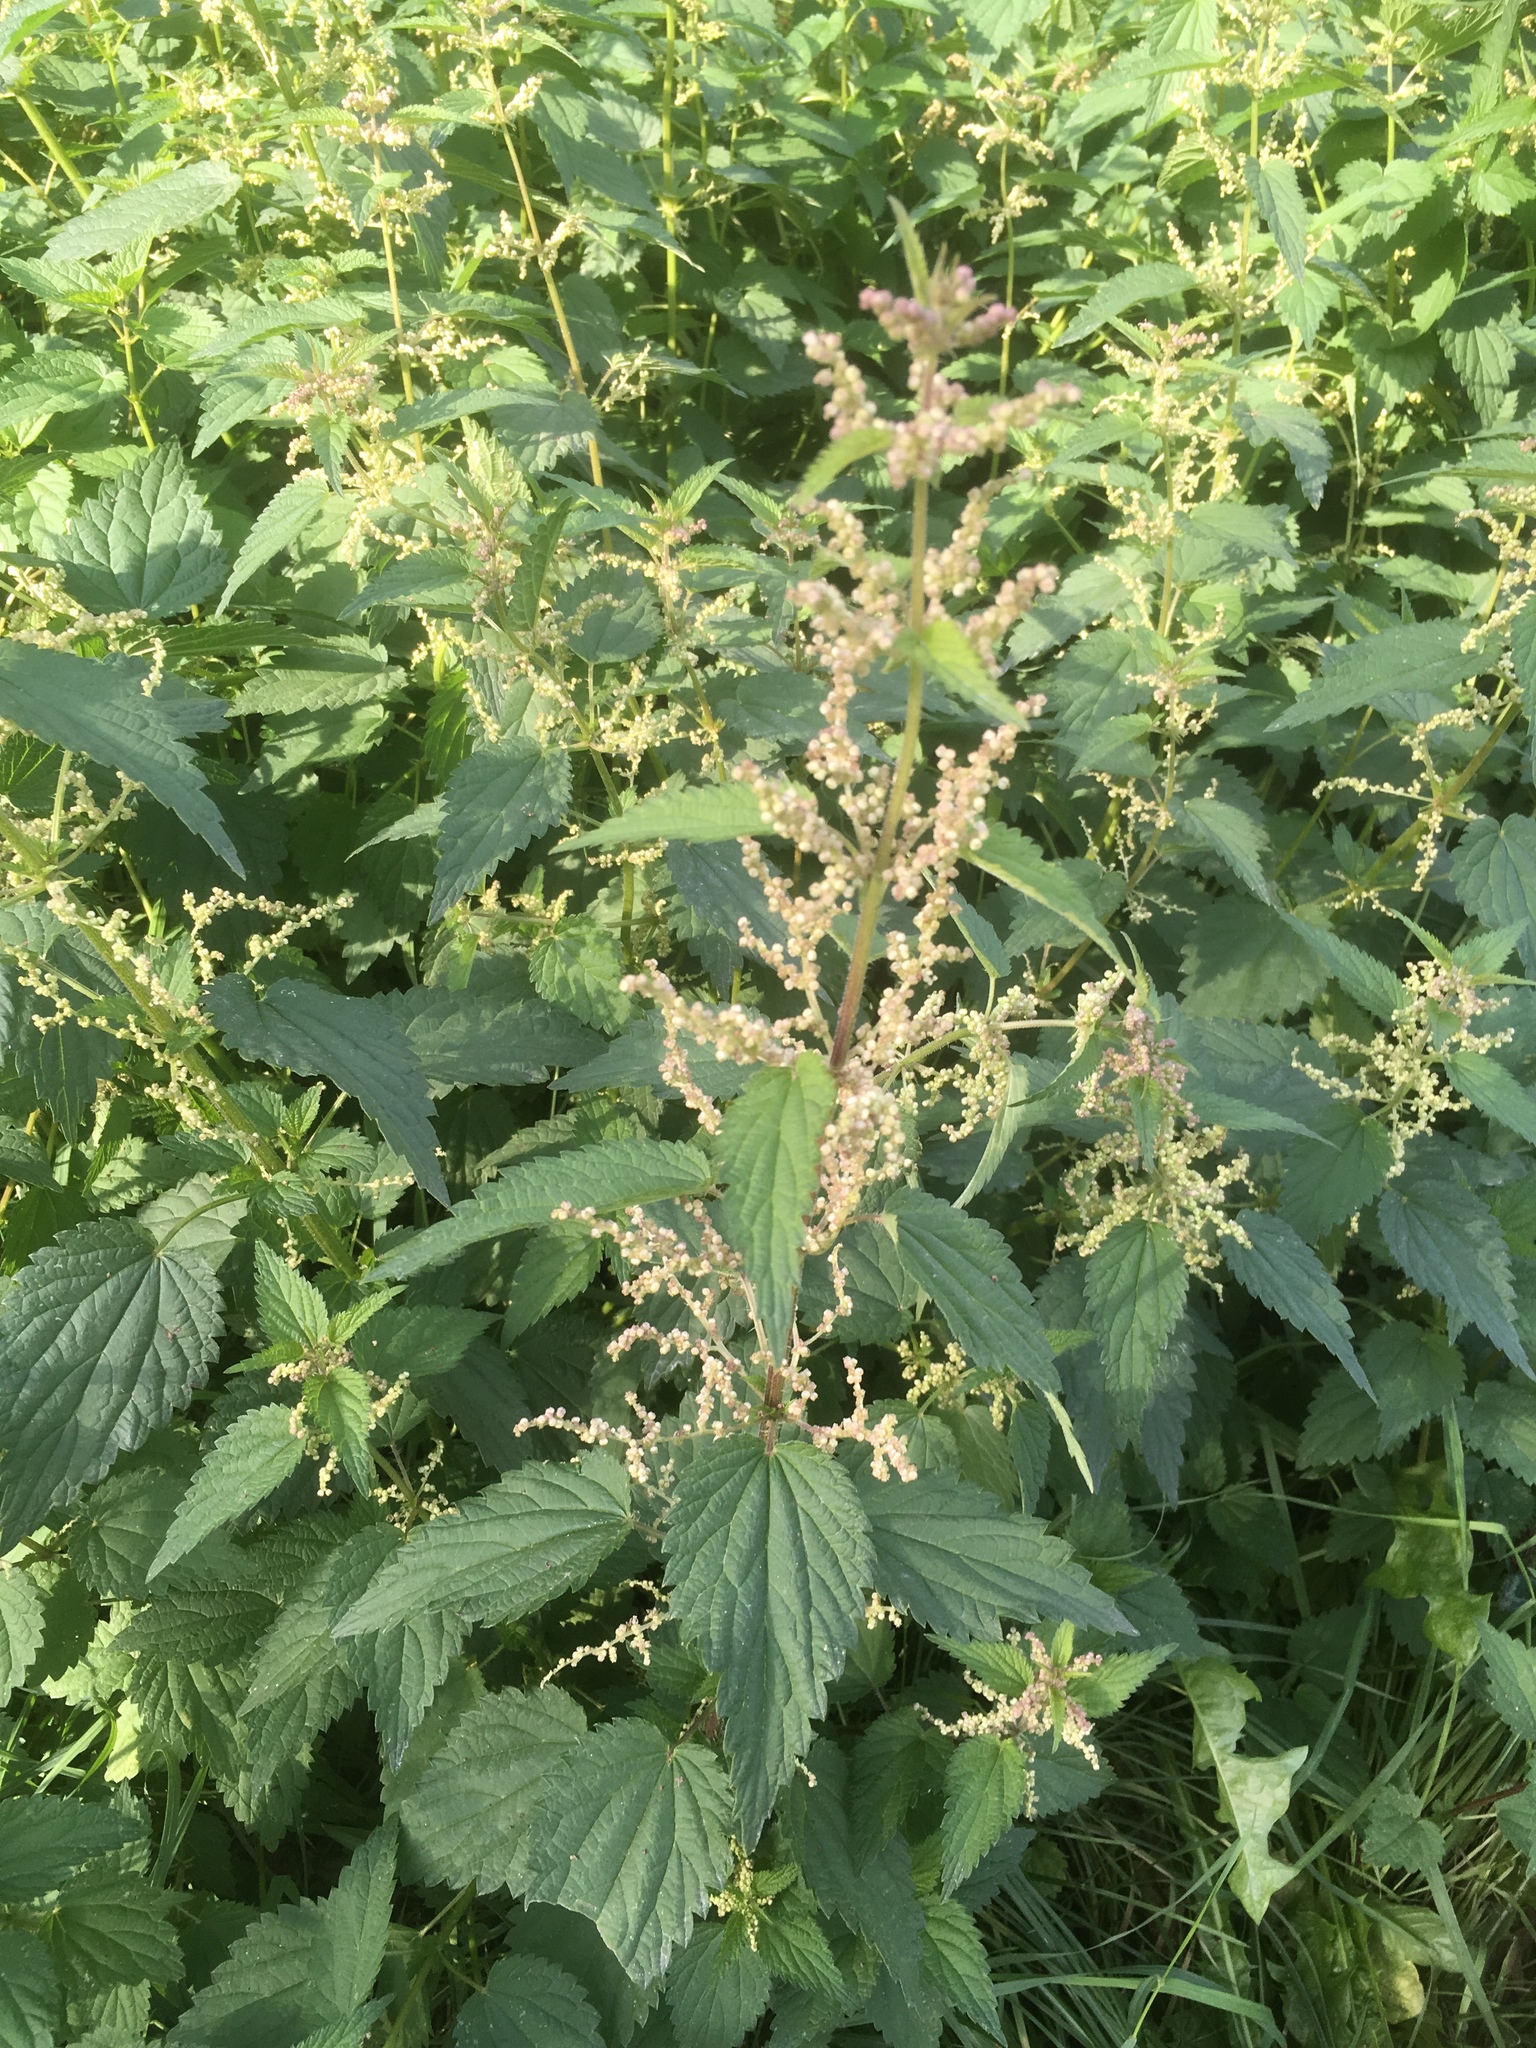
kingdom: Plantae
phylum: Tracheophyta
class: Magnoliopsida
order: Rosales
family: Urticaceae
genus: Urtica
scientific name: Urtica dioica
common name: Common nettle
